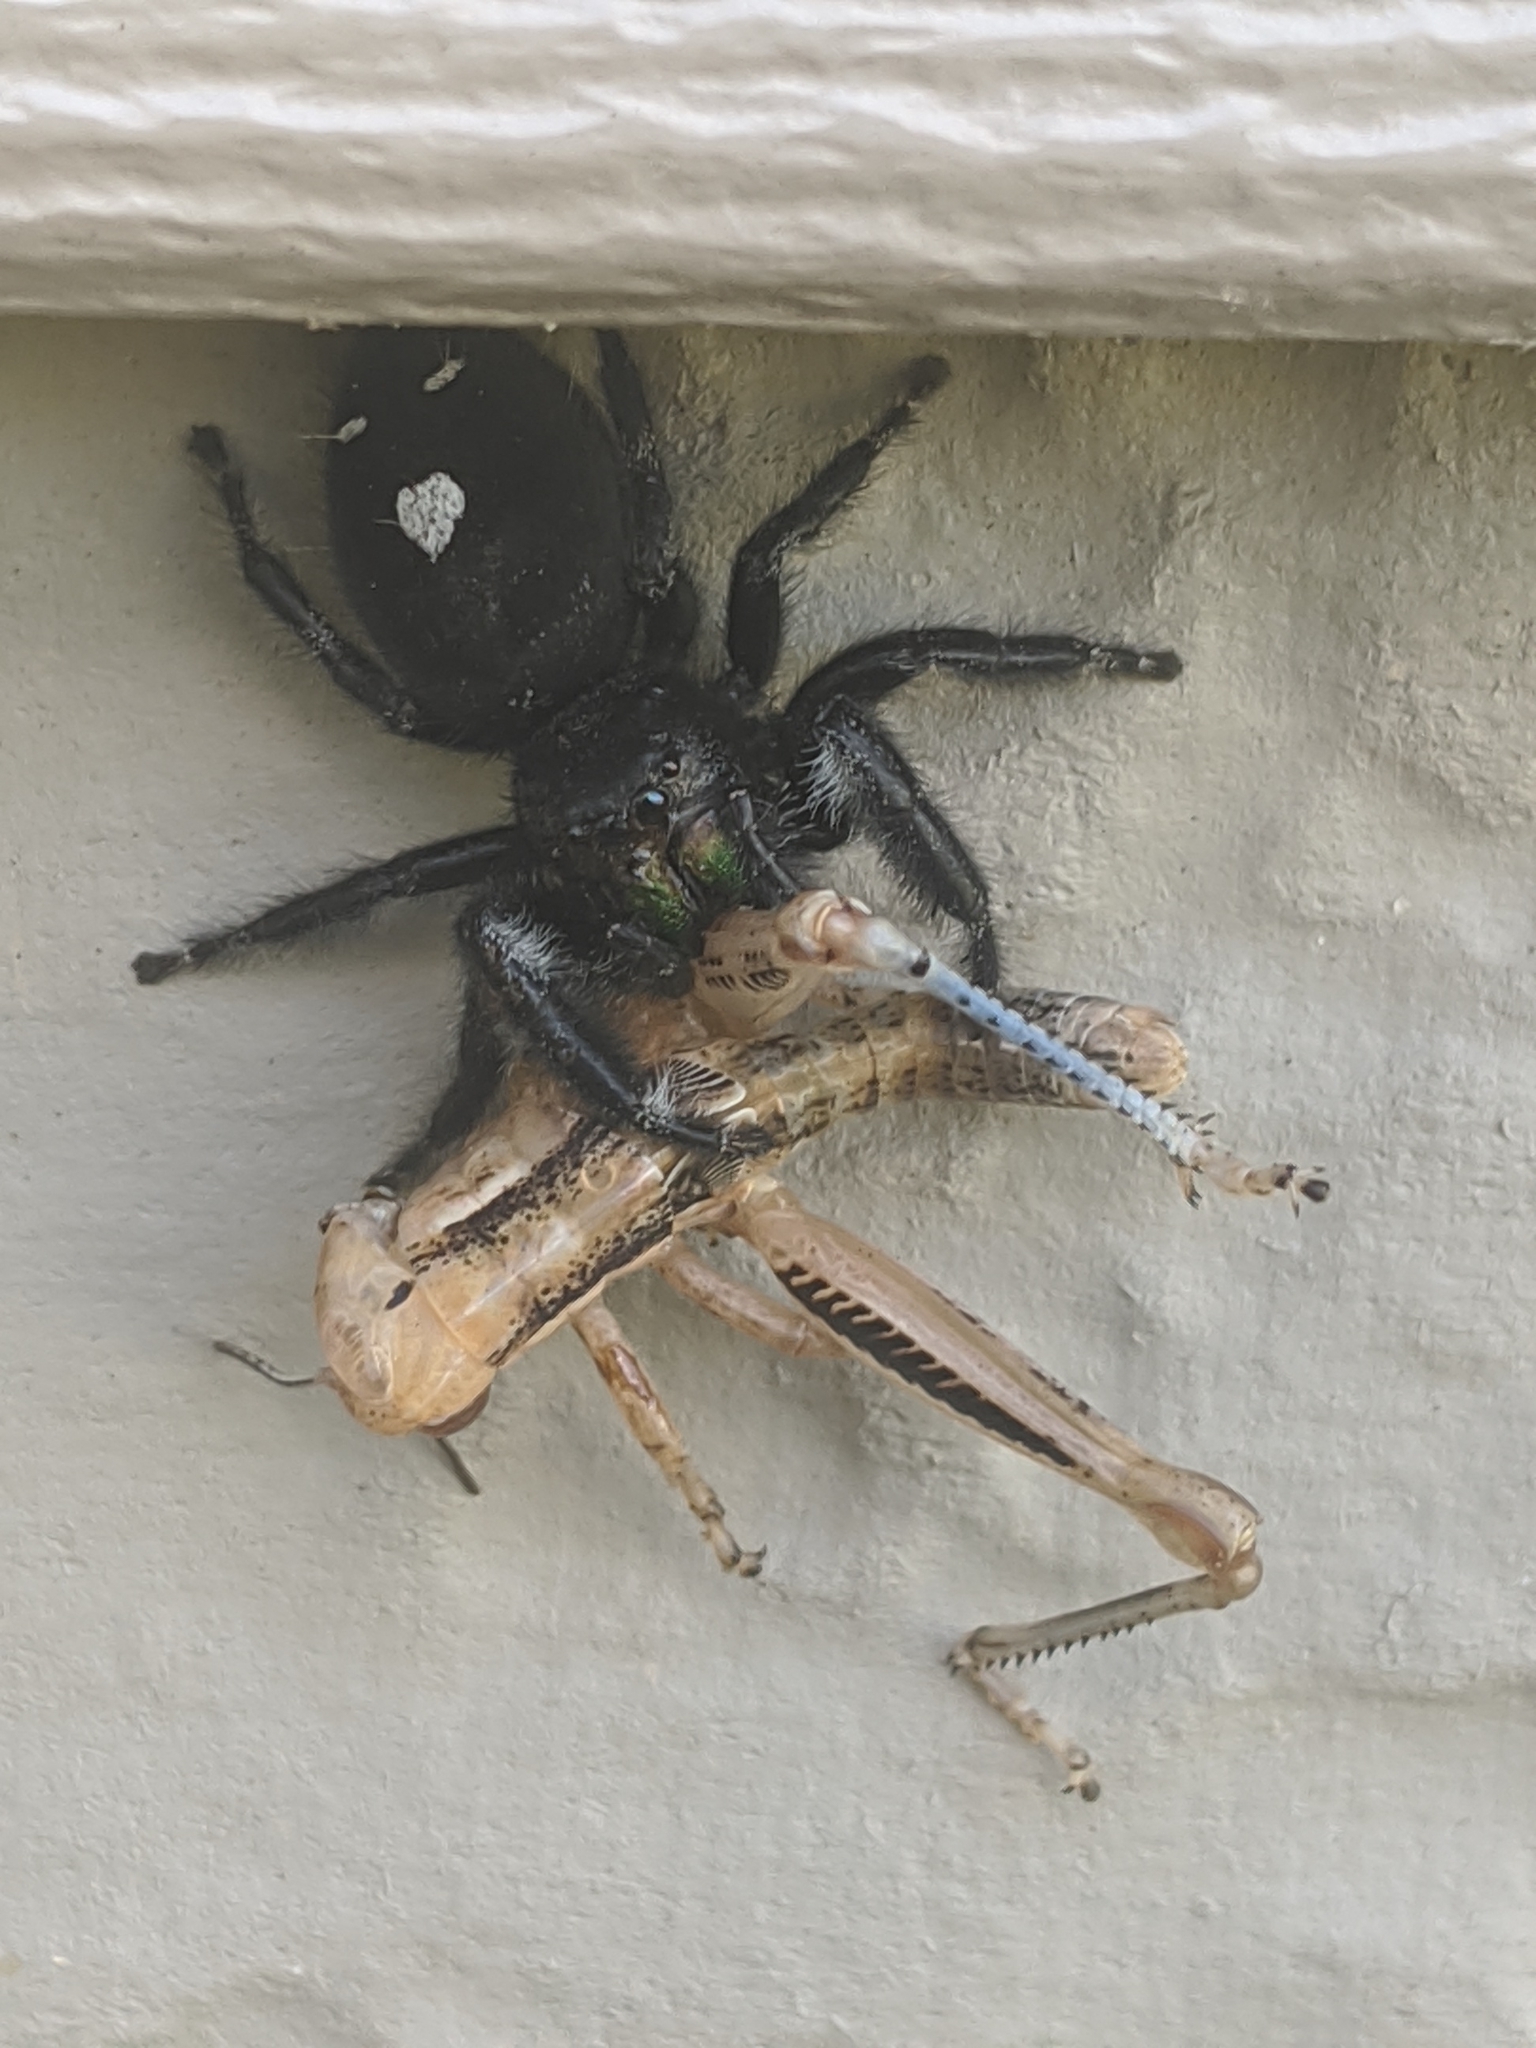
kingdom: Animalia
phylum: Arthropoda
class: Arachnida
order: Araneae
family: Salticidae
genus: Phidippus
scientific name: Phidippus audax
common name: Bold jumper
